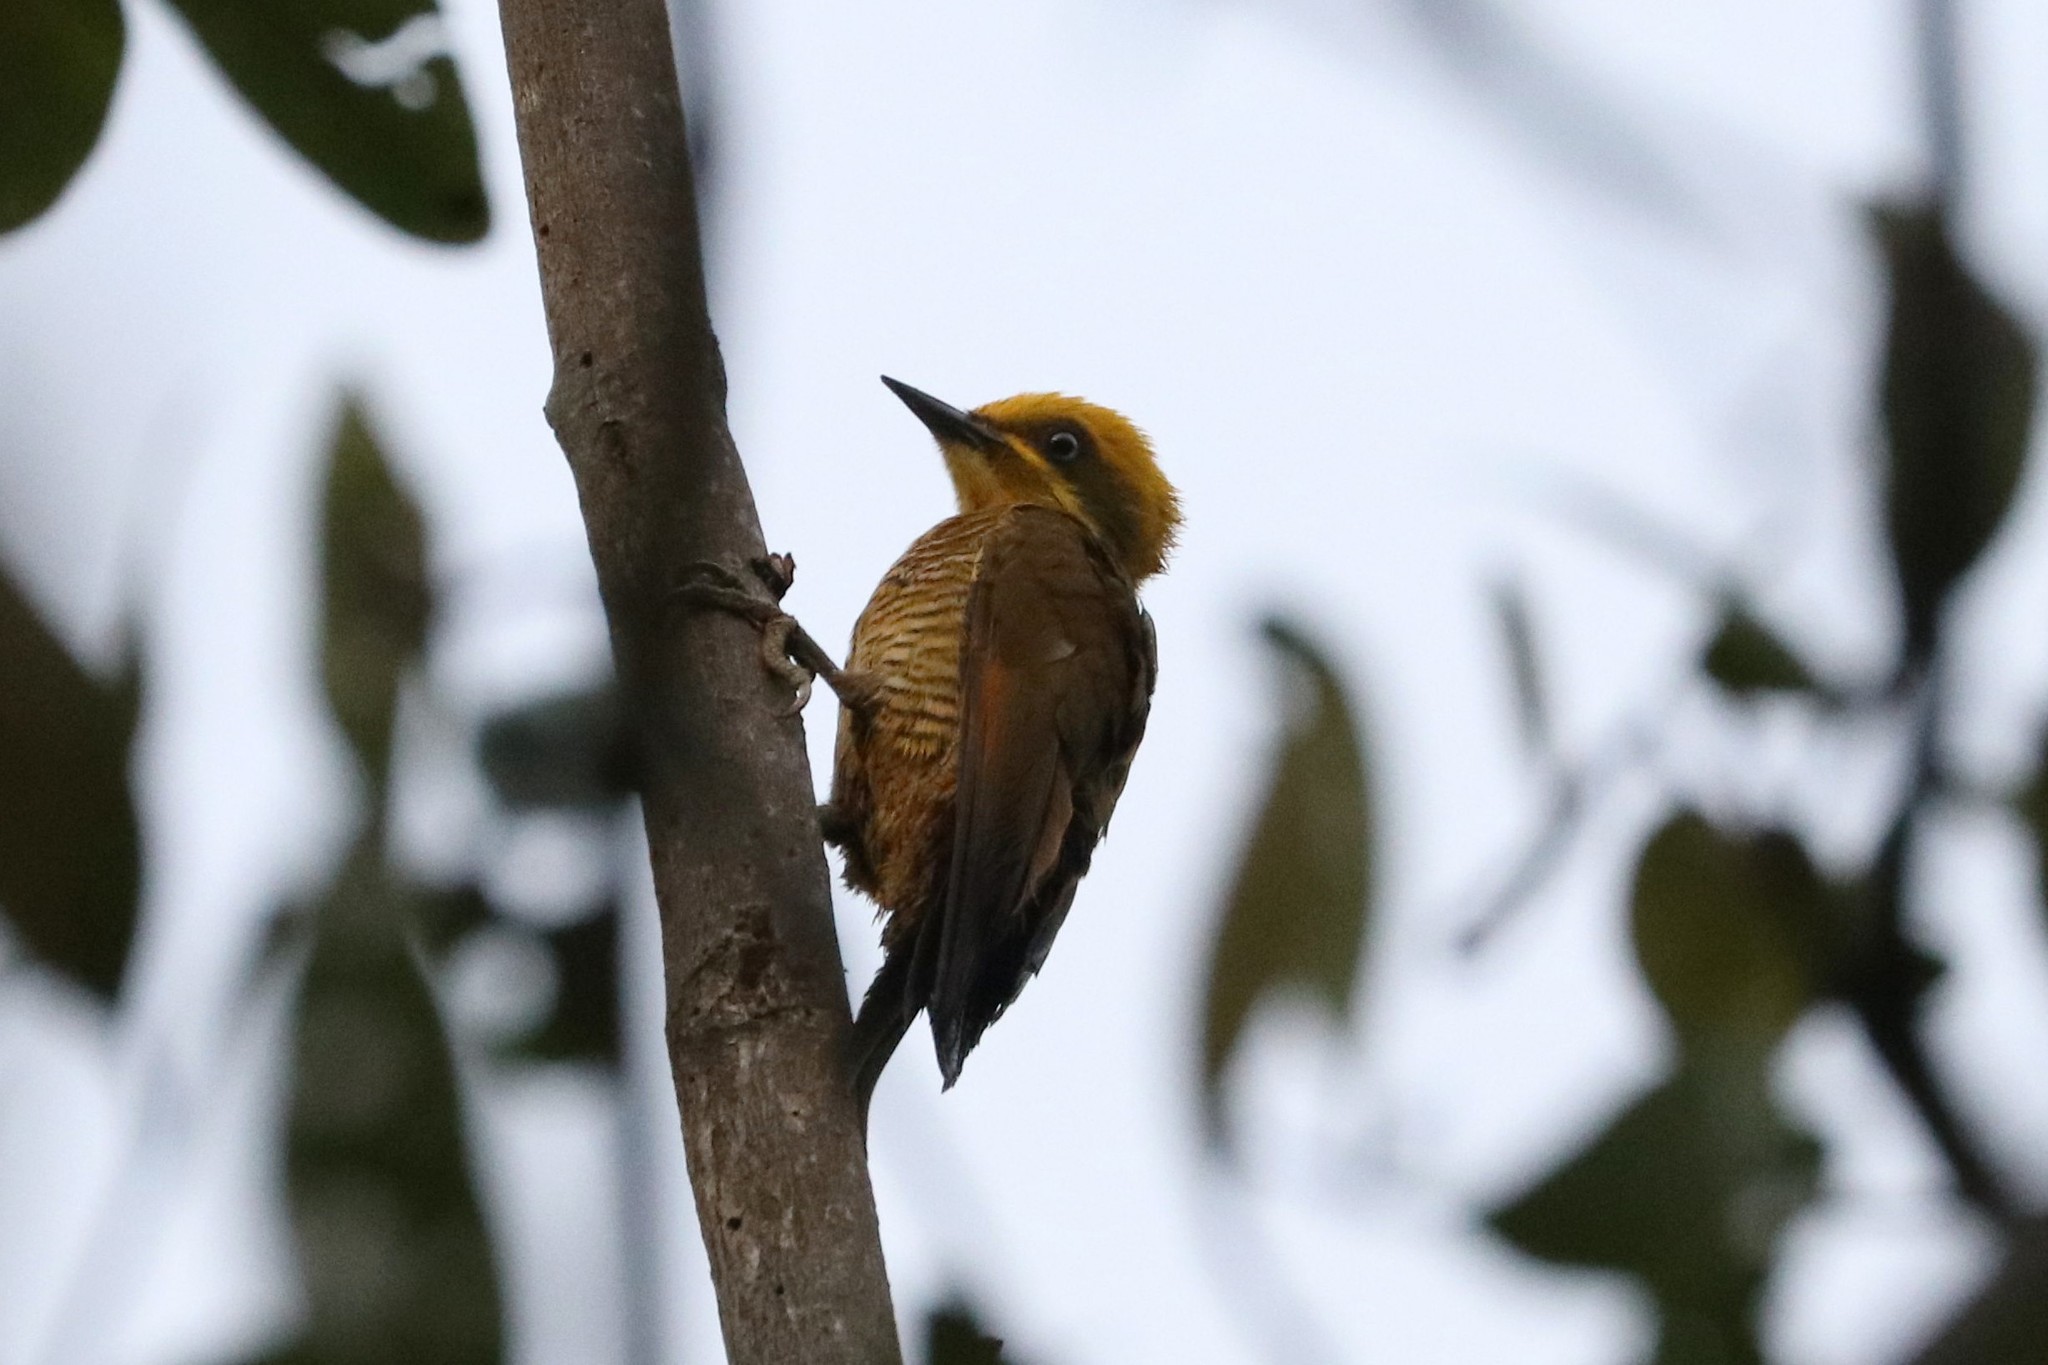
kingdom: Animalia
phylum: Chordata
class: Aves
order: Piciformes
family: Picidae
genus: Piculus
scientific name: Piculus chrysochloros
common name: Golden-green woodpecker
